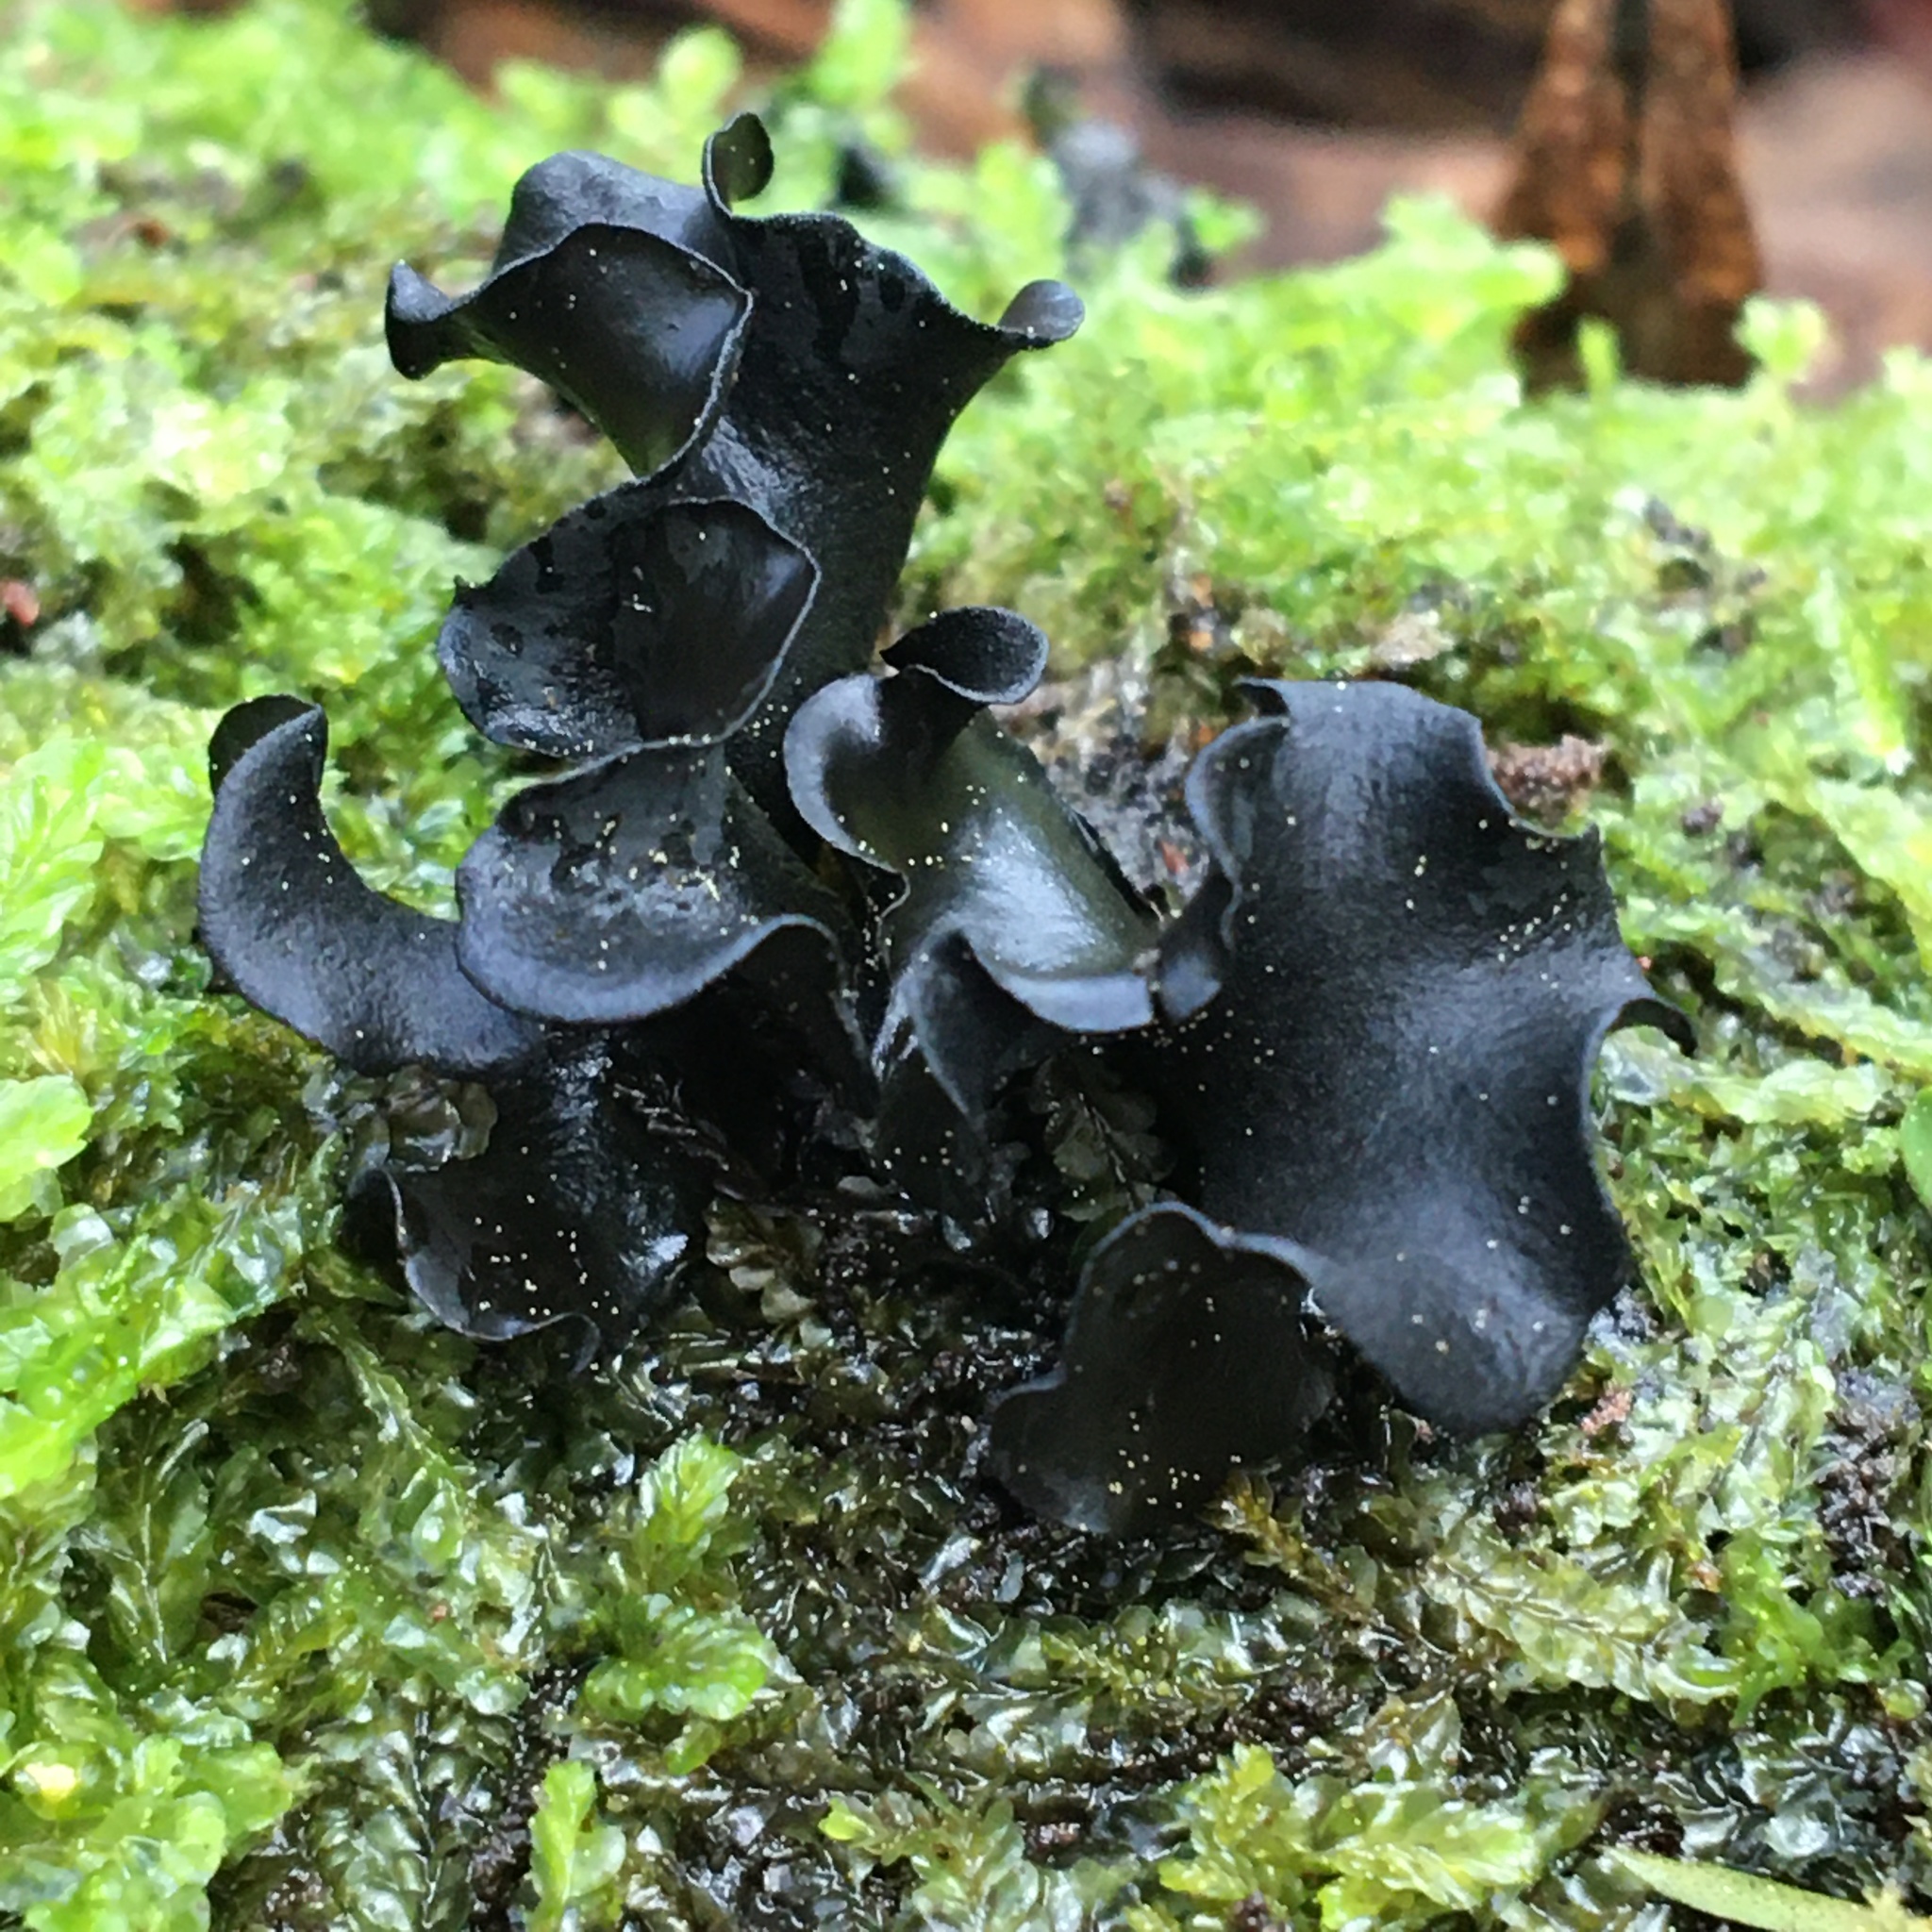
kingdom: Fungi
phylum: Ascomycota
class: Leotiomycetes
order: Helotiales
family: Cordieritidaceae
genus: Cordierites
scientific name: Cordierites frondosus
